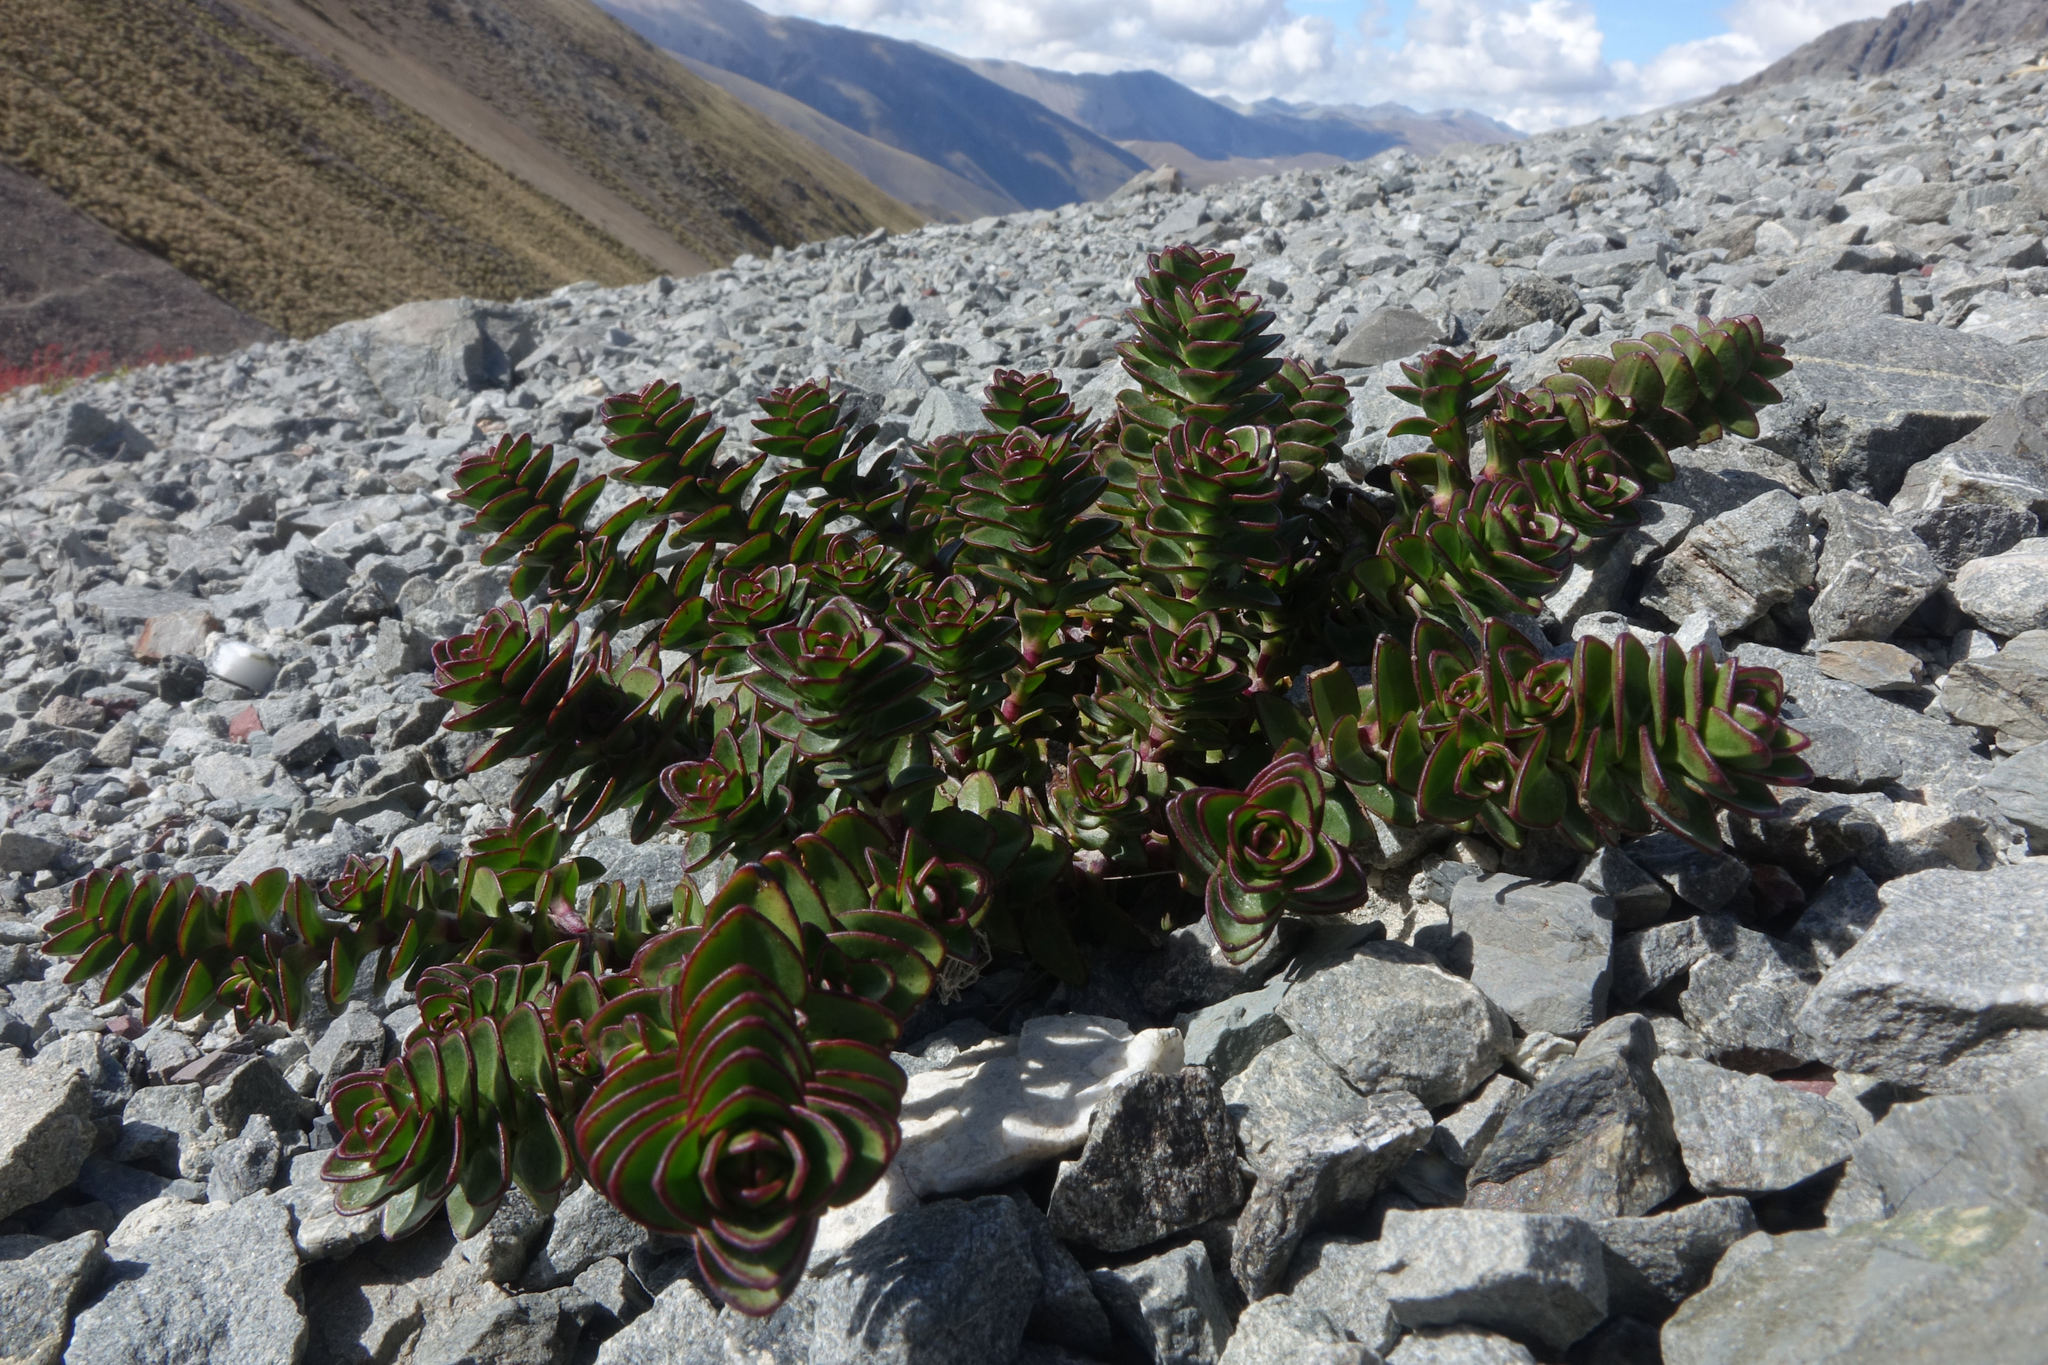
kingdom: Plantae
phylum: Tracheophyta
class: Magnoliopsida
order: Lamiales
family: Plantaginaceae
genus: Veronica
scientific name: Veronica epacridea
